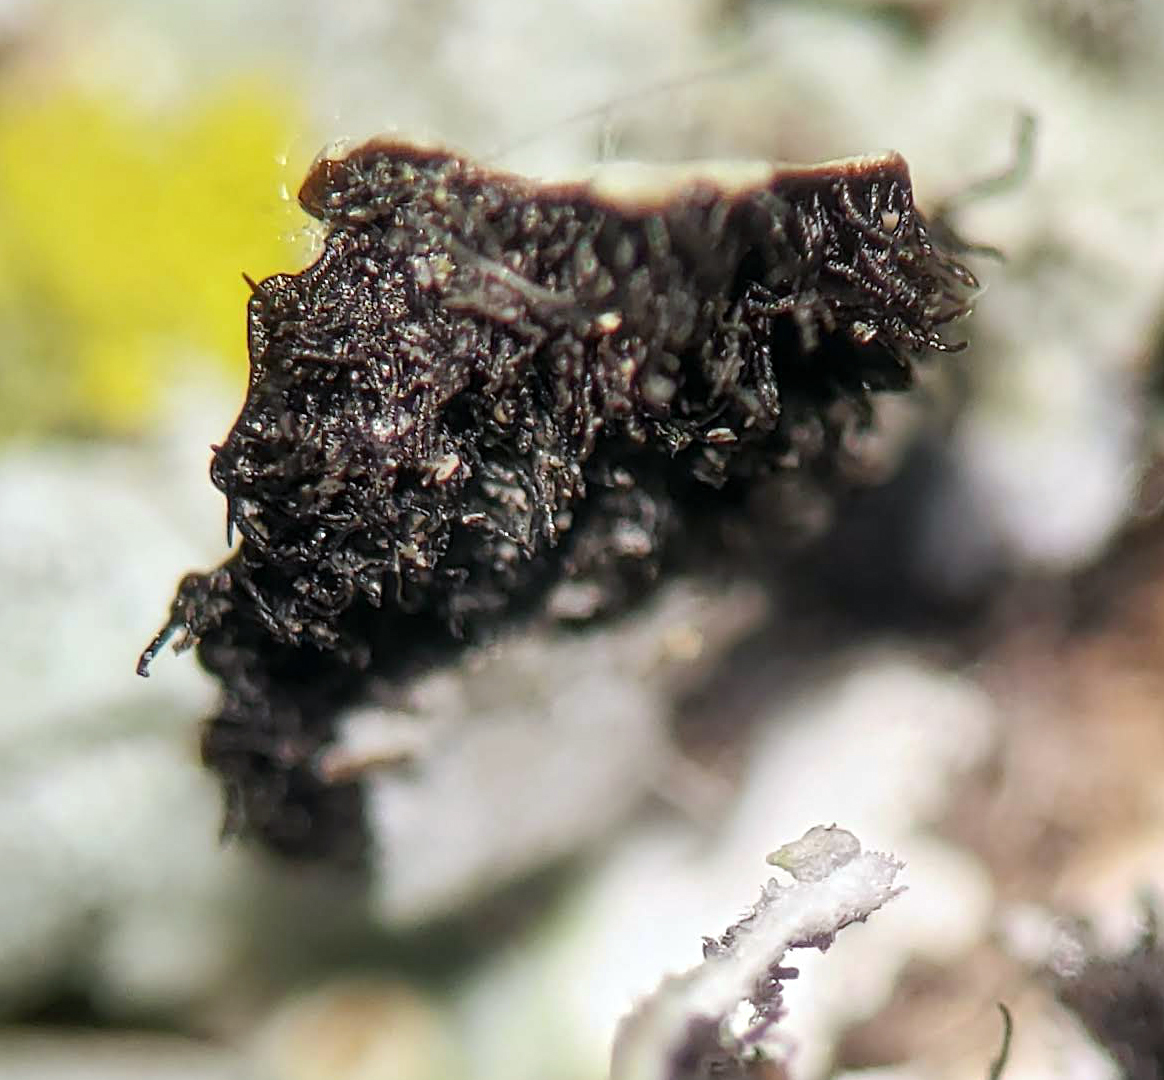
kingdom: Fungi
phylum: Ascomycota
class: Lecanoromycetes
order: Lecanorales
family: Parmeliaceae
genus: Myelochroa
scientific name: Myelochroa galbina
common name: Smooth axil-bristle lichen
